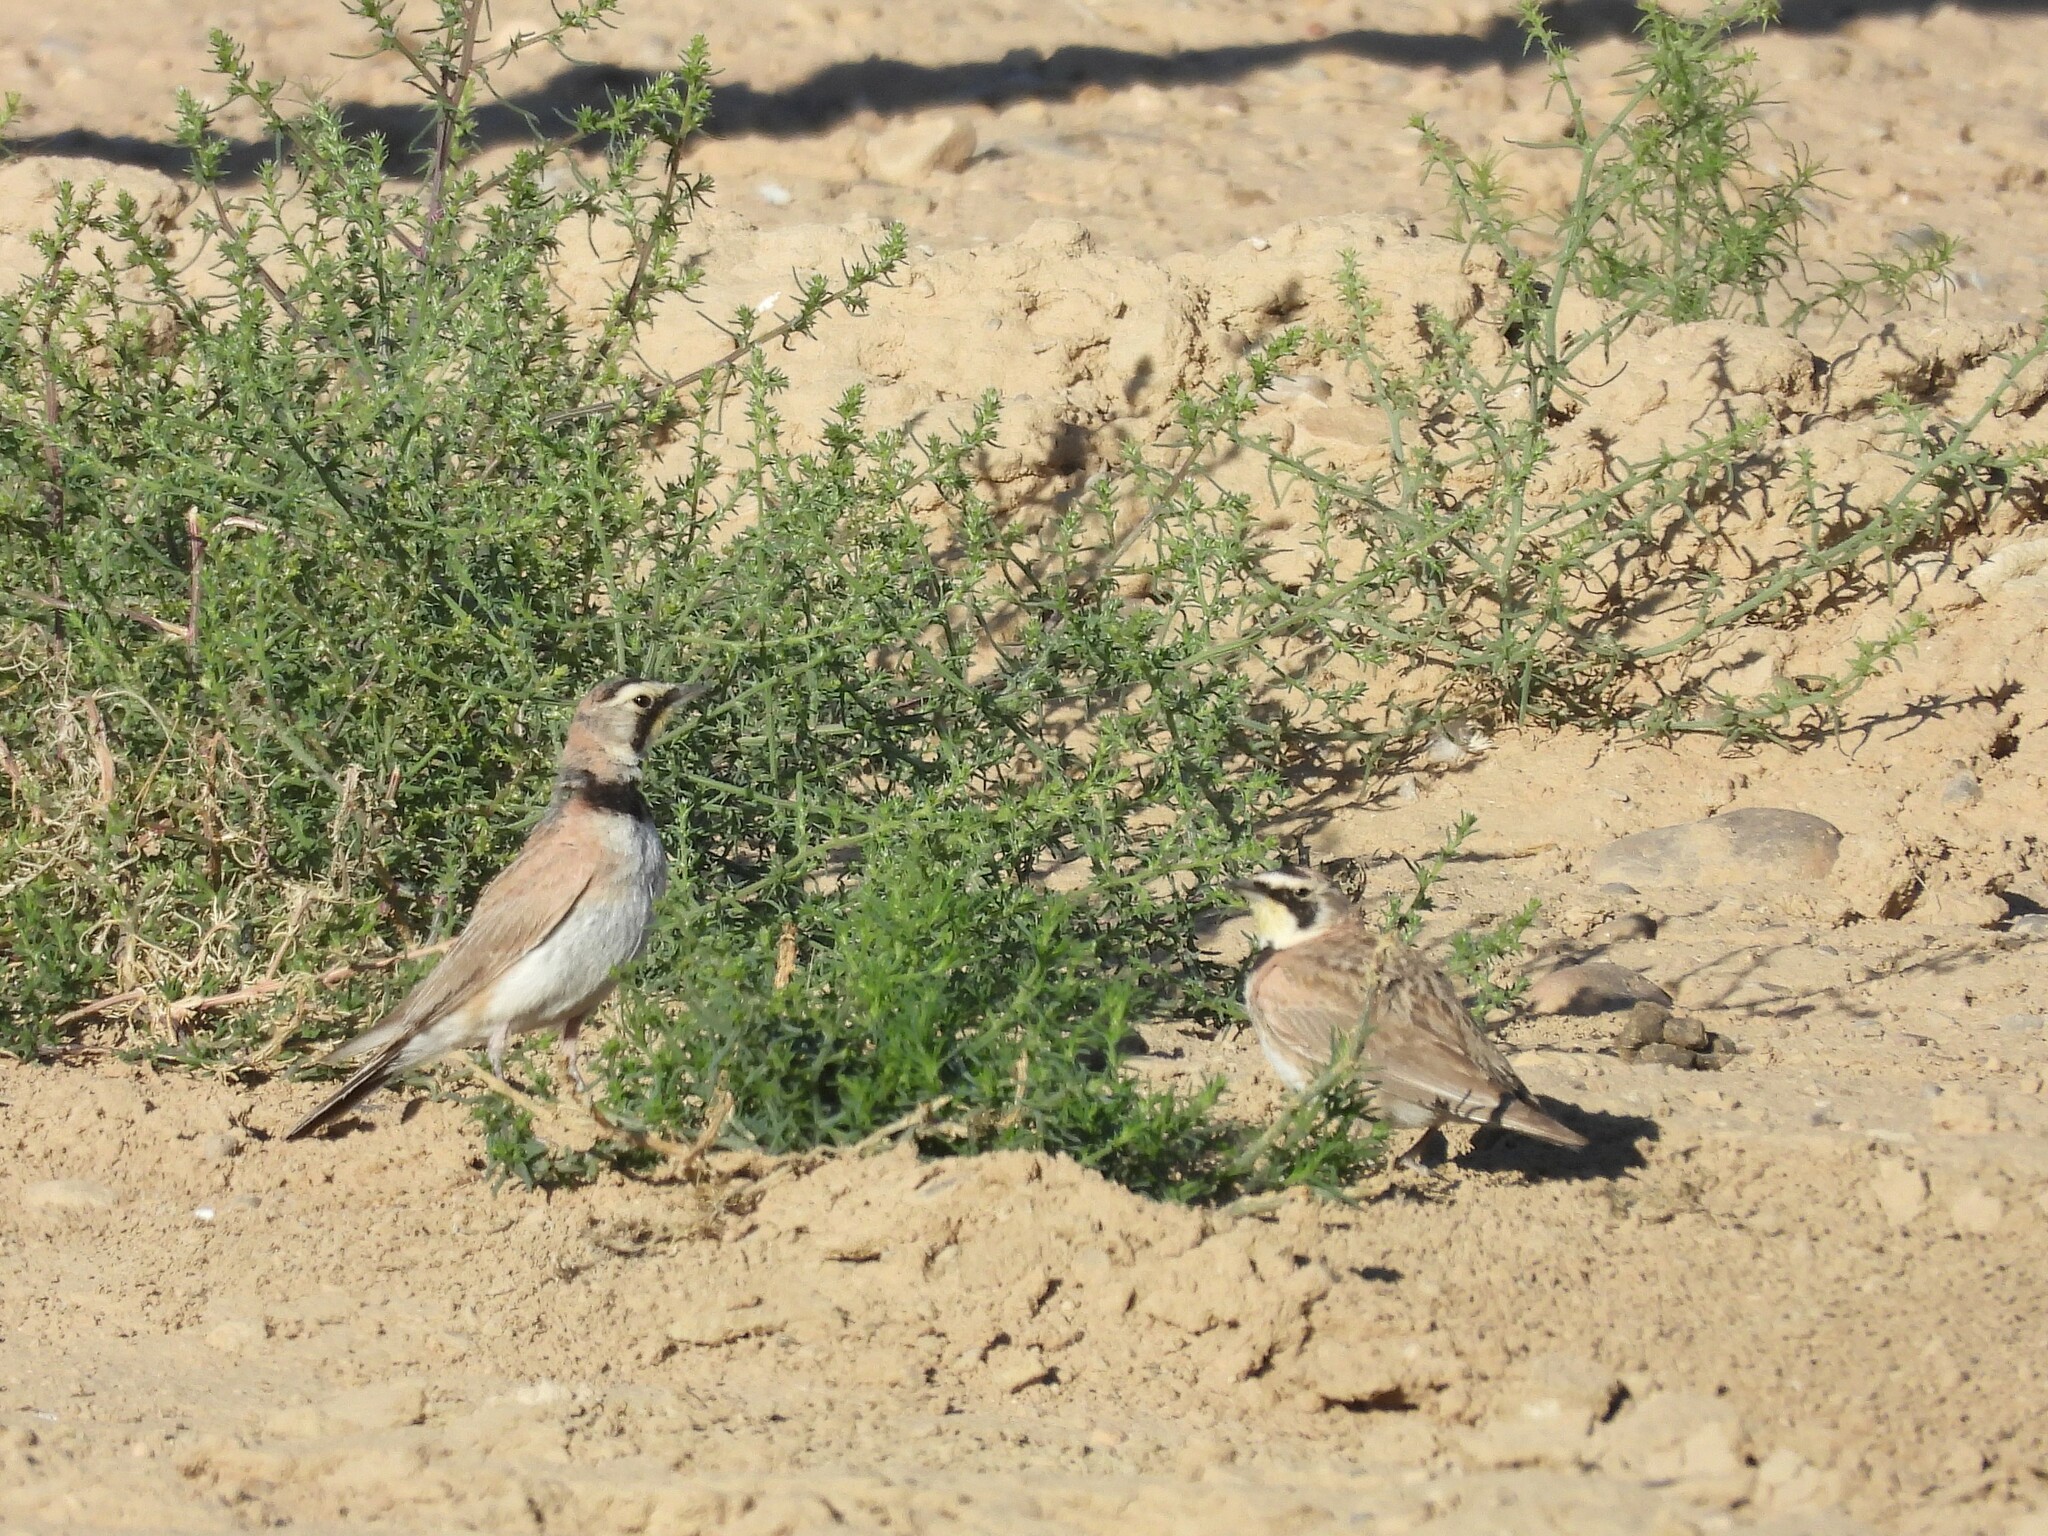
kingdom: Animalia
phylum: Chordata
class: Aves
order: Passeriformes
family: Alaudidae
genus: Eremophila
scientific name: Eremophila alpestris
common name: Horned lark
